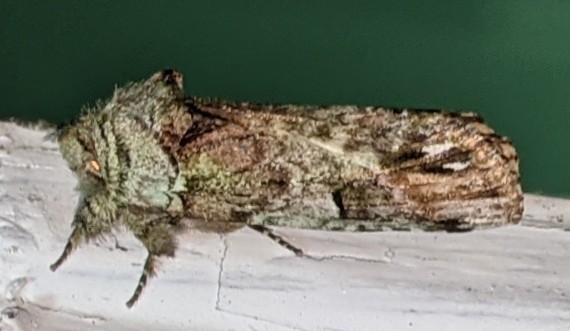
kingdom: Animalia
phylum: Arthropoda
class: Insecta
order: Lepidoptera
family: Notodontidae
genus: Schizura
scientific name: Schizura
